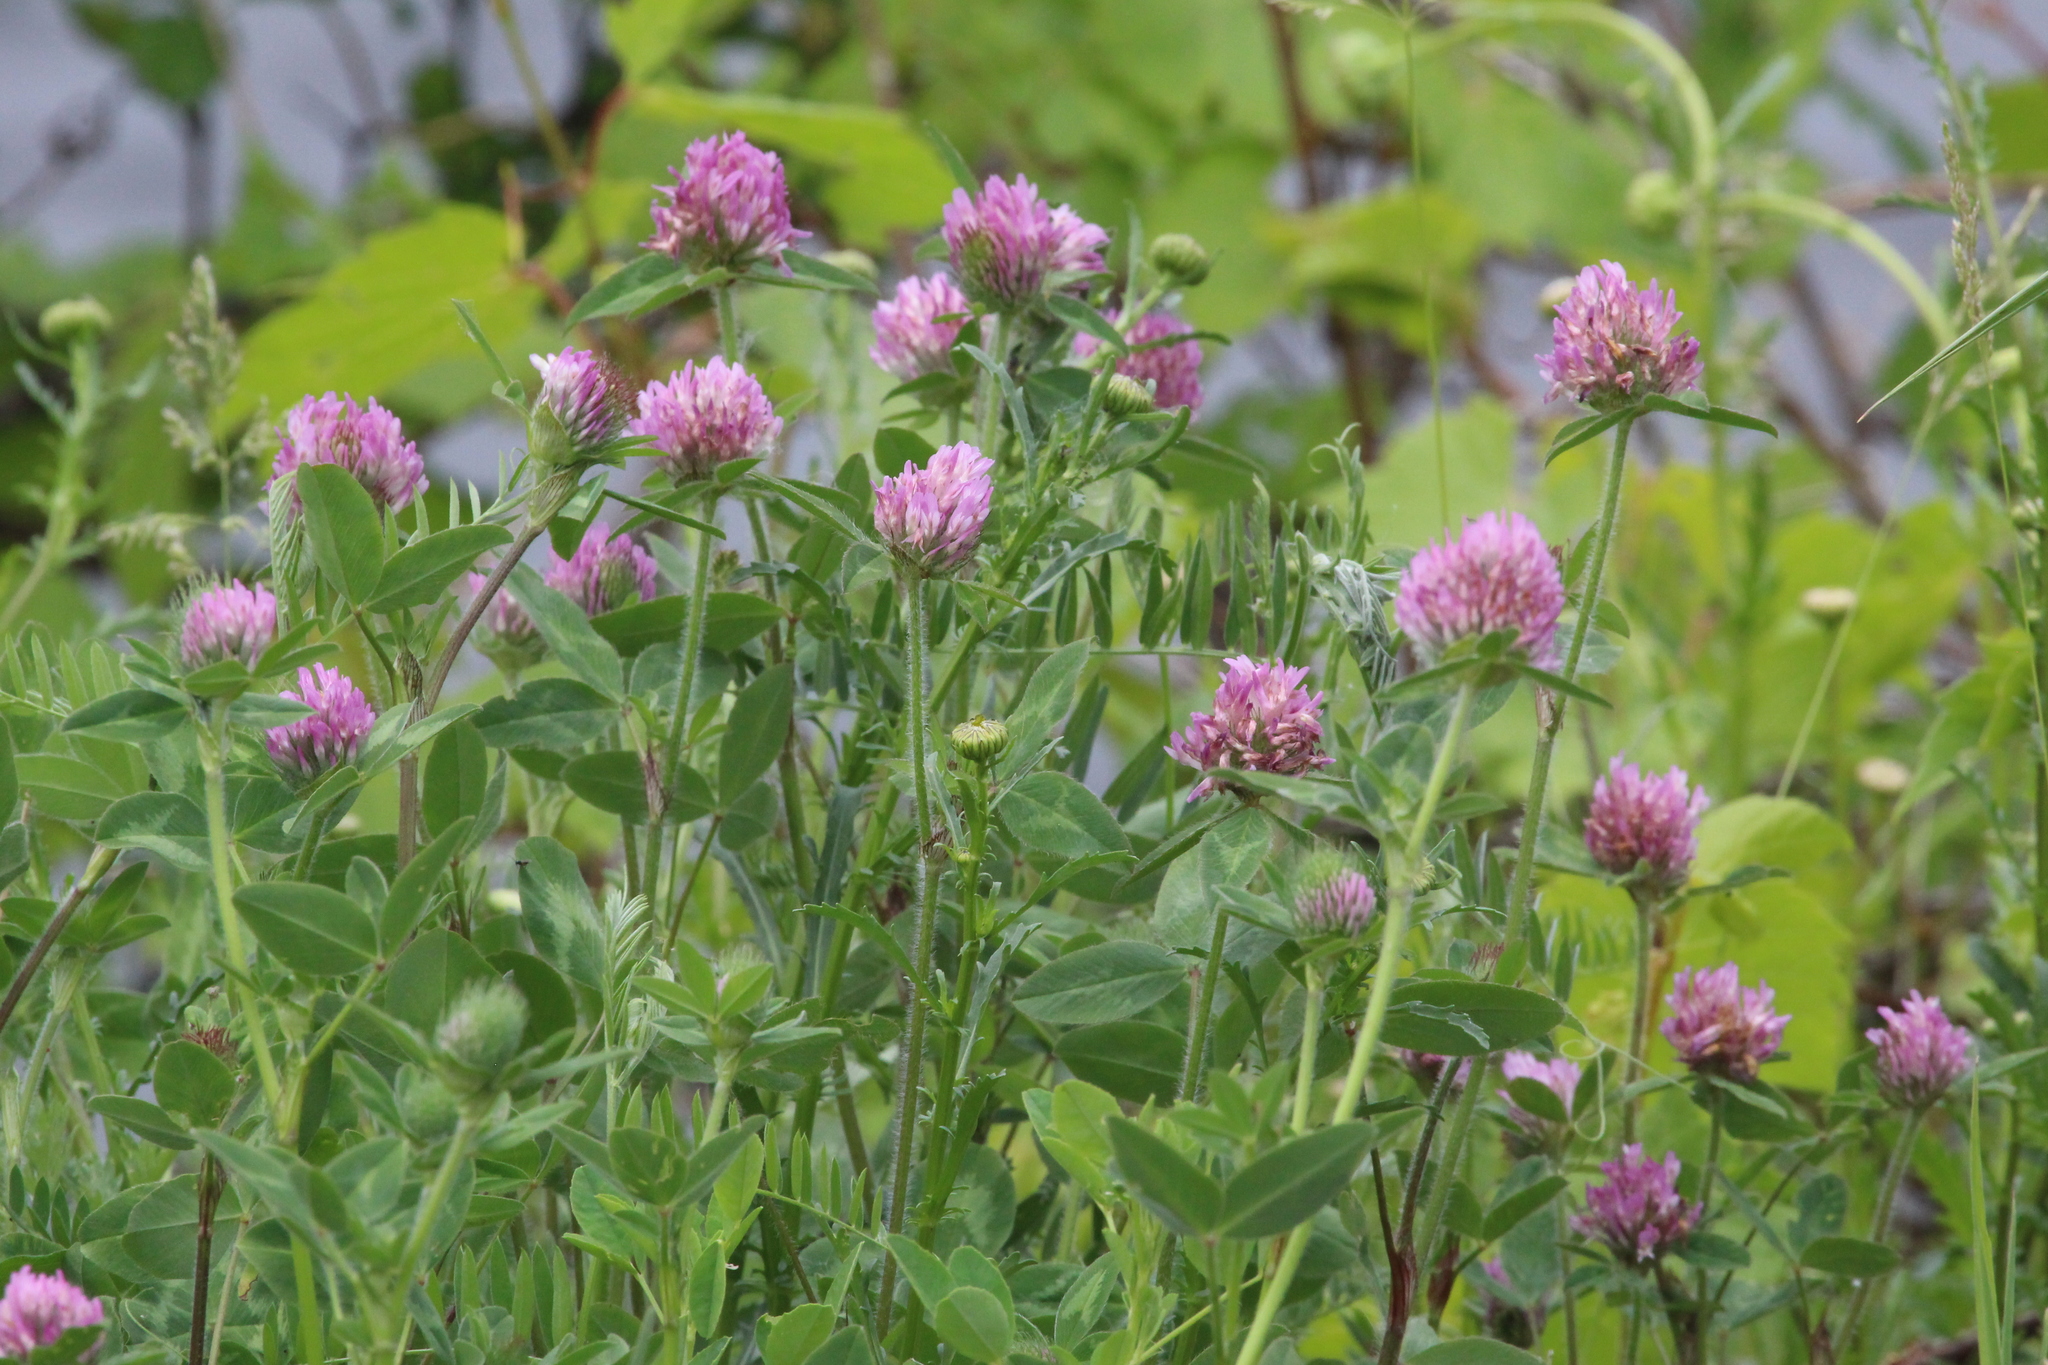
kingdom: Plantae
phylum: Tracheophyta
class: Magnoliopsida
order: Fabales
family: Fabaceae
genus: Trifolium
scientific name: Trifolium pratense
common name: Red clover
